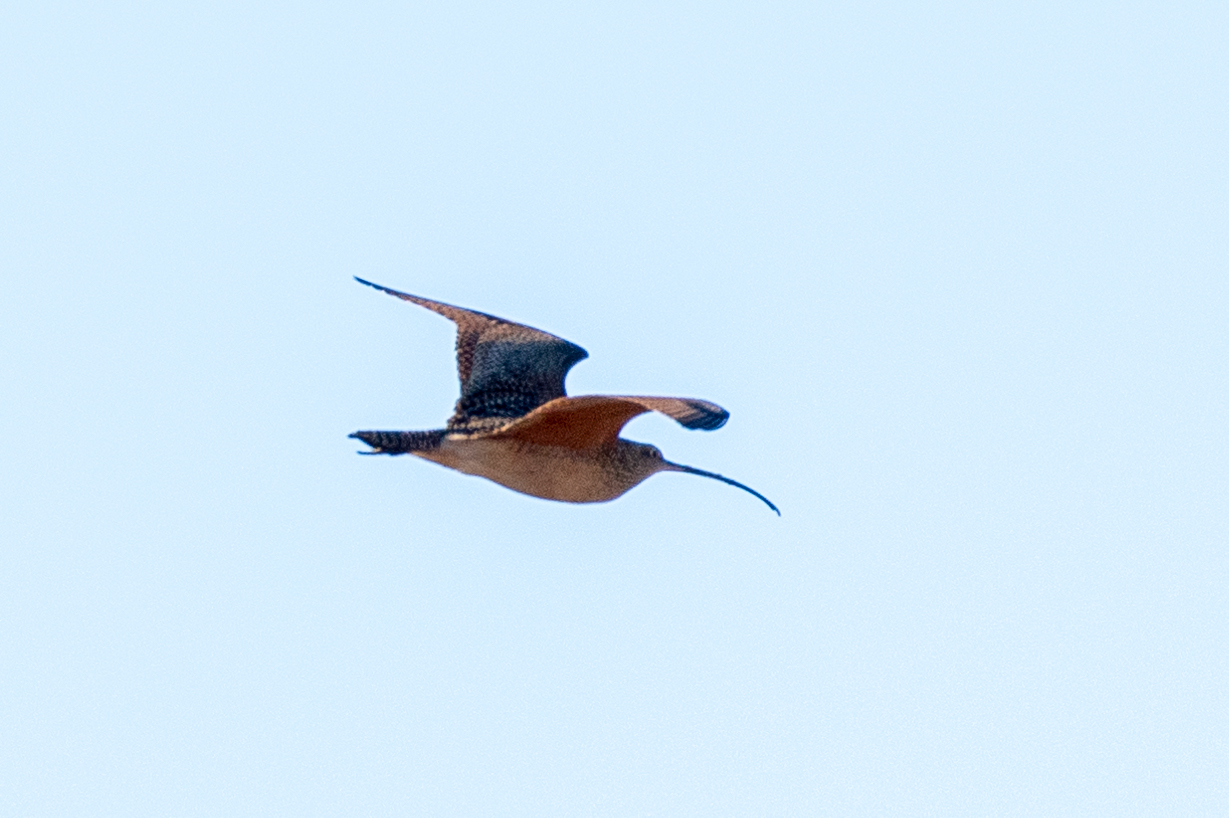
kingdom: Animalia
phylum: Chordata
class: Aves
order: Charadriiformes
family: Scolopacidae
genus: Numenius
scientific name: Numenius americanus
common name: Long-billed curlew
